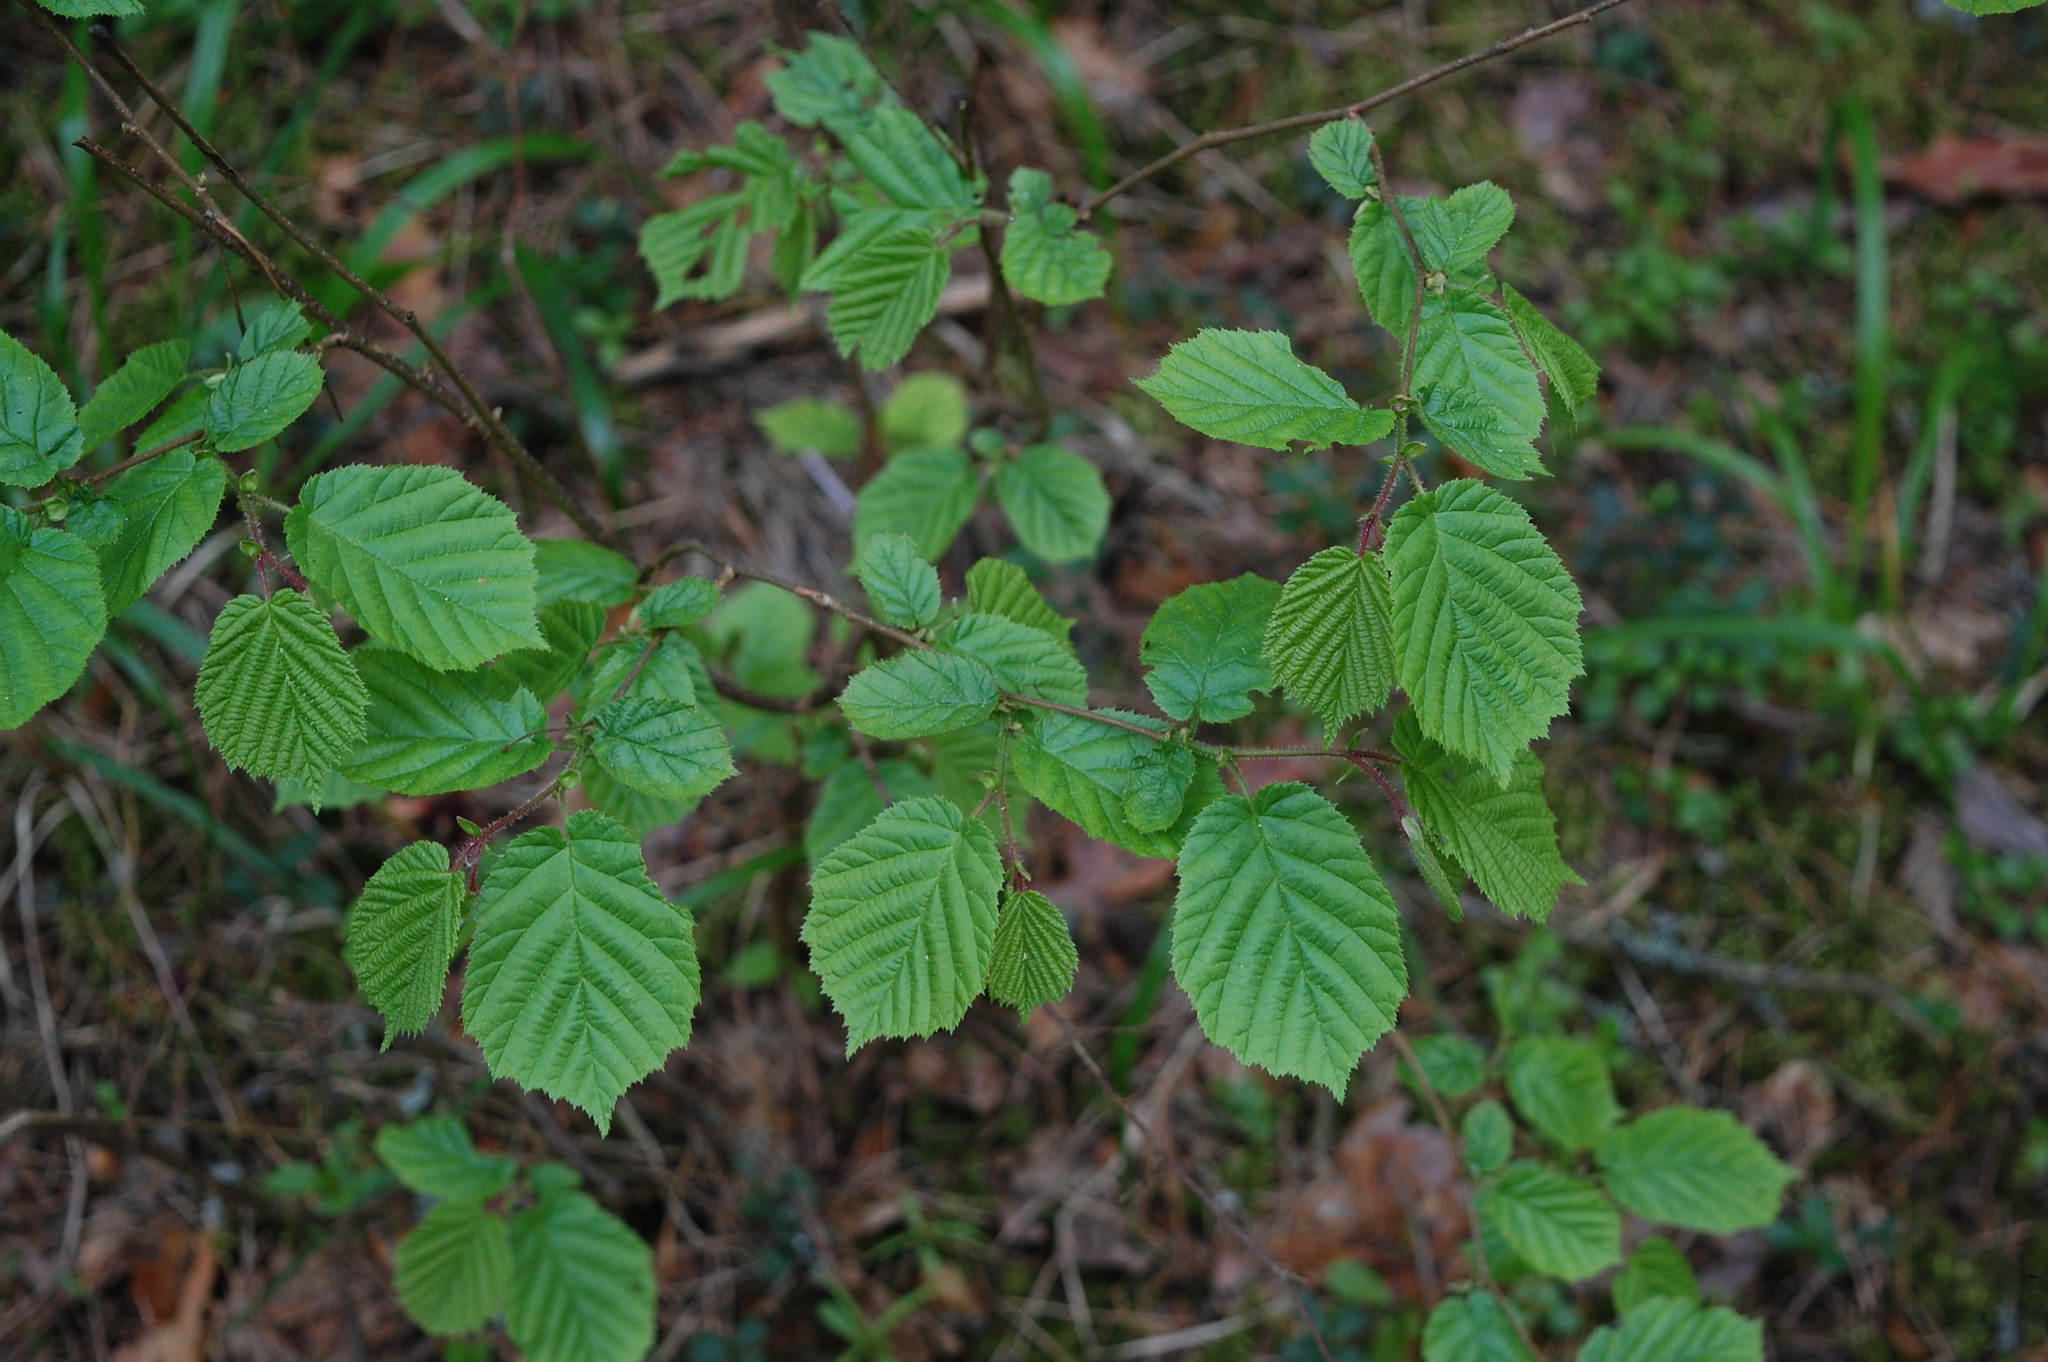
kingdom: Plantae
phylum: Tracheophyta
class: Magnoliopsida
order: Fagales
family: Betulaceae
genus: Corylus
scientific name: Corylus avellana
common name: European hazel
